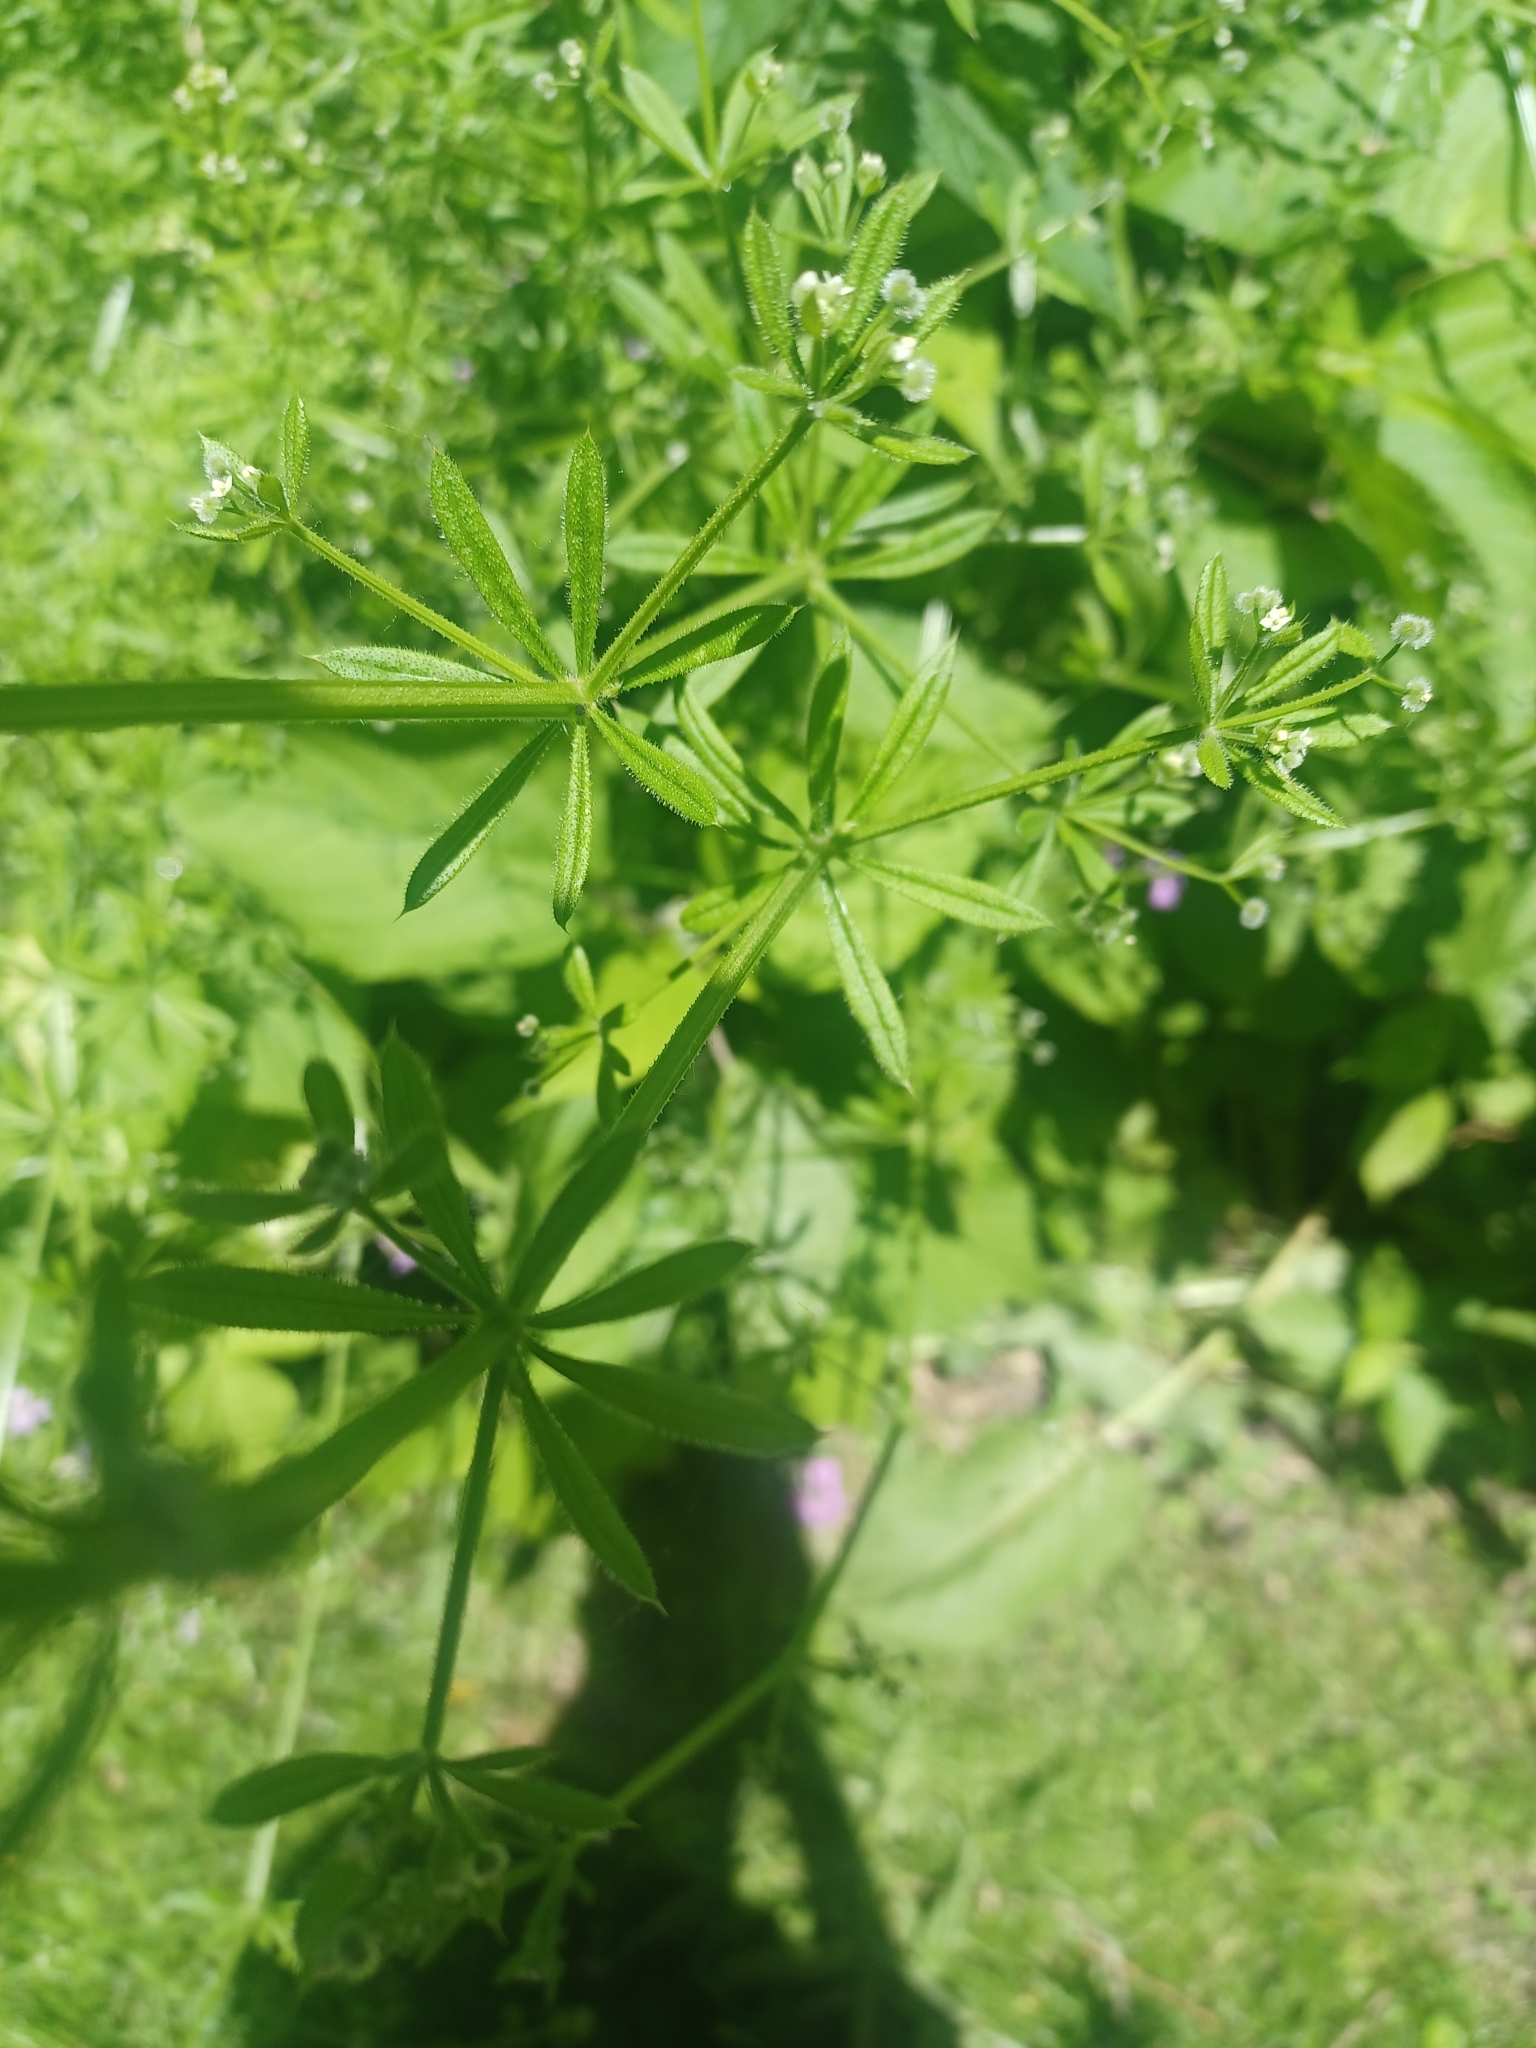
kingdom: Plantae
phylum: Tracheophyta
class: Magnoliopsida
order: Gentianales
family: Rubiaceae
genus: Galium
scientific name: Galium aparine
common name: Cleavers
